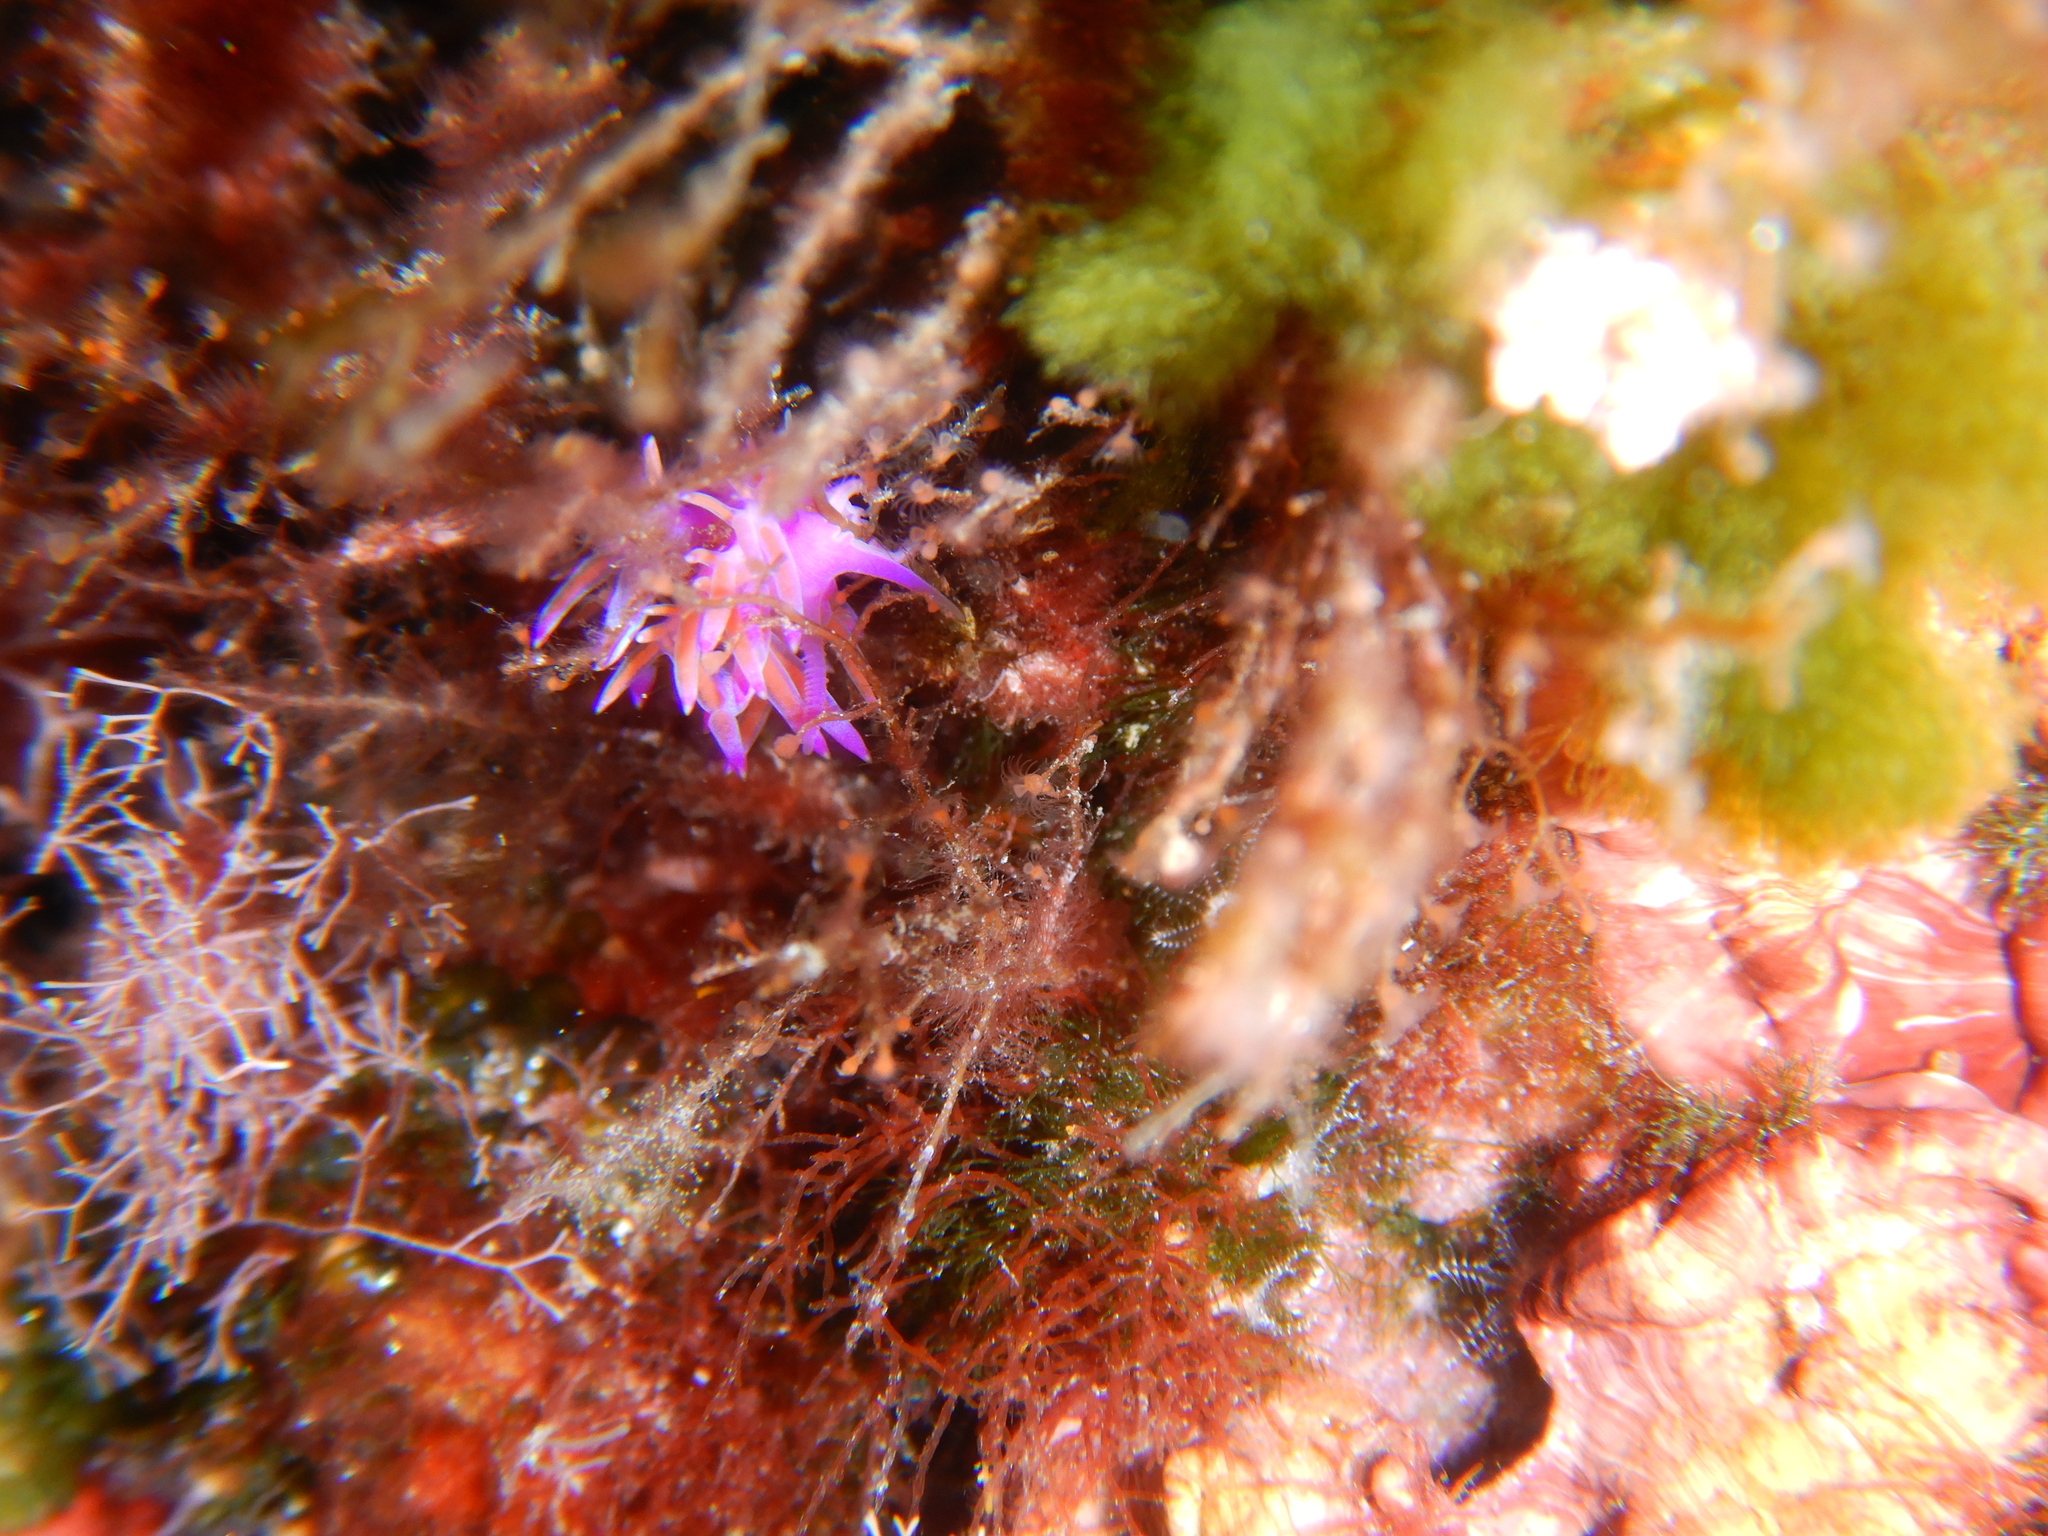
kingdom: Animalia
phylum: Mollusca
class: Gastropoda
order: Nudibranchia
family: Flabellinidae
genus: Flabellina
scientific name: Flabellina affinis
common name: Mediterranean violet aeolid
